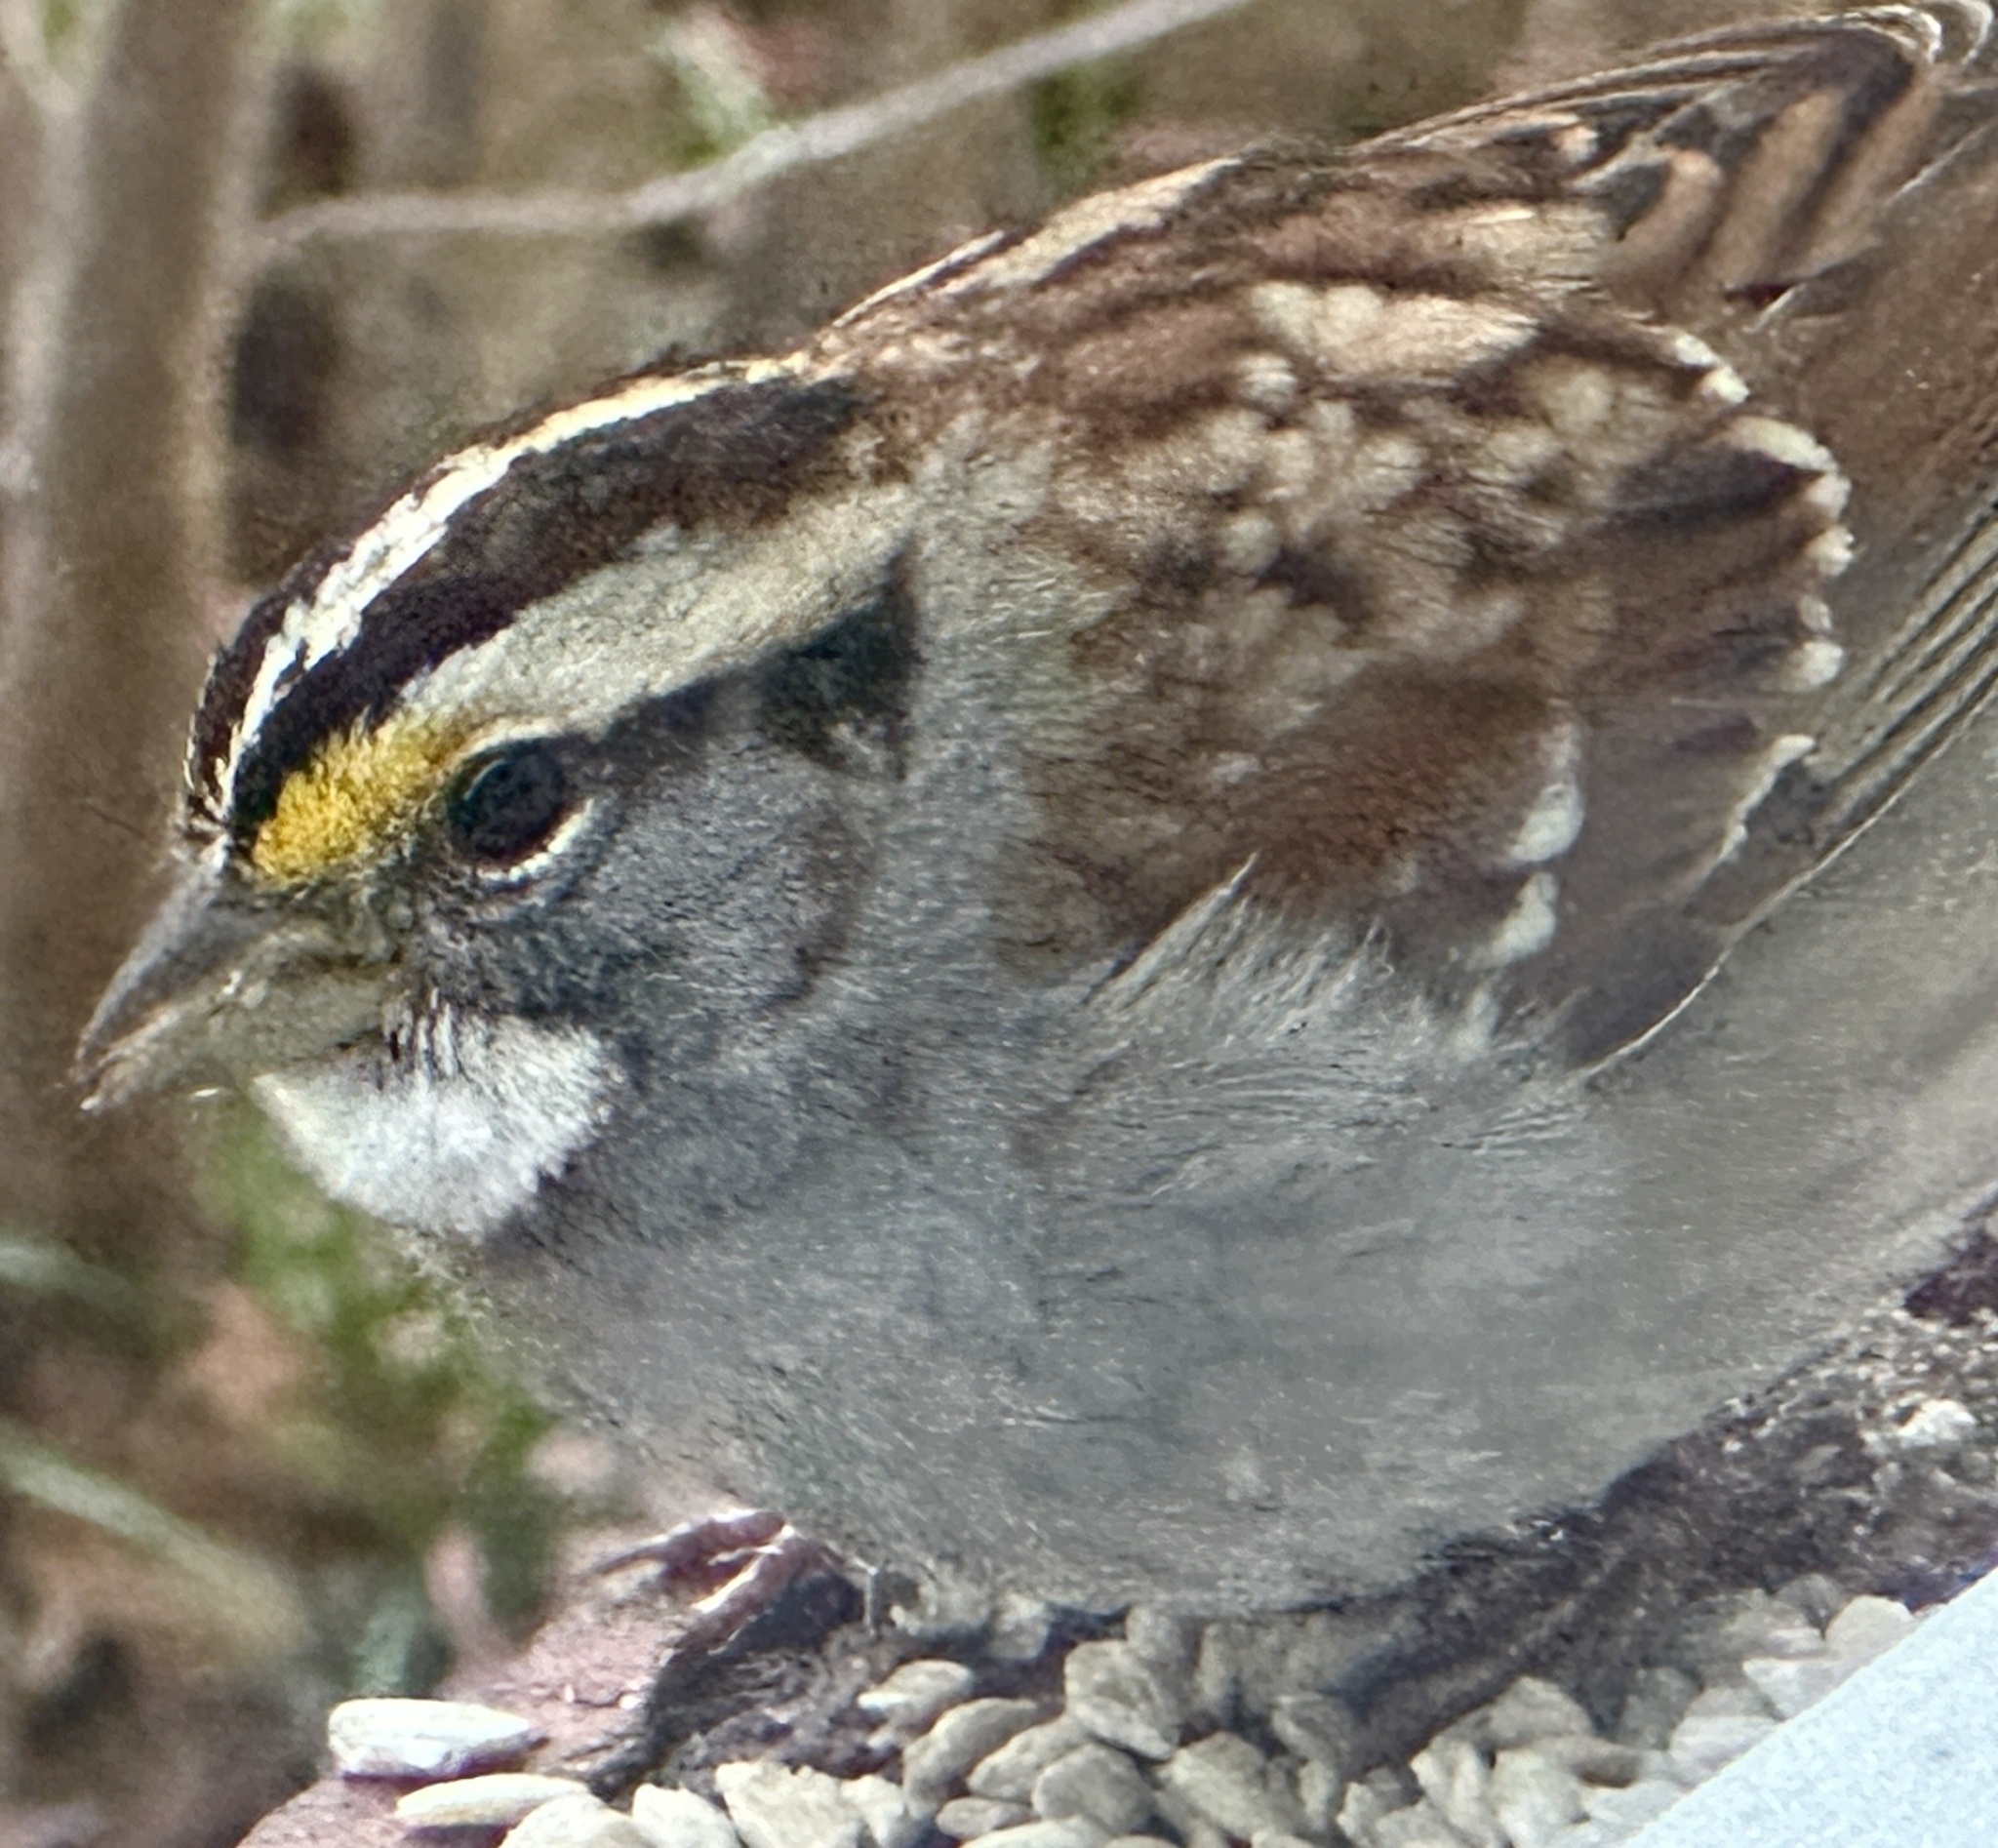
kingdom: Animalia
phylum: Chordata
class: Aves
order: Passeriformes
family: Passerellidae
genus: Zonotrichia
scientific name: Zonotrichia albicollis
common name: White-throated sparrow
